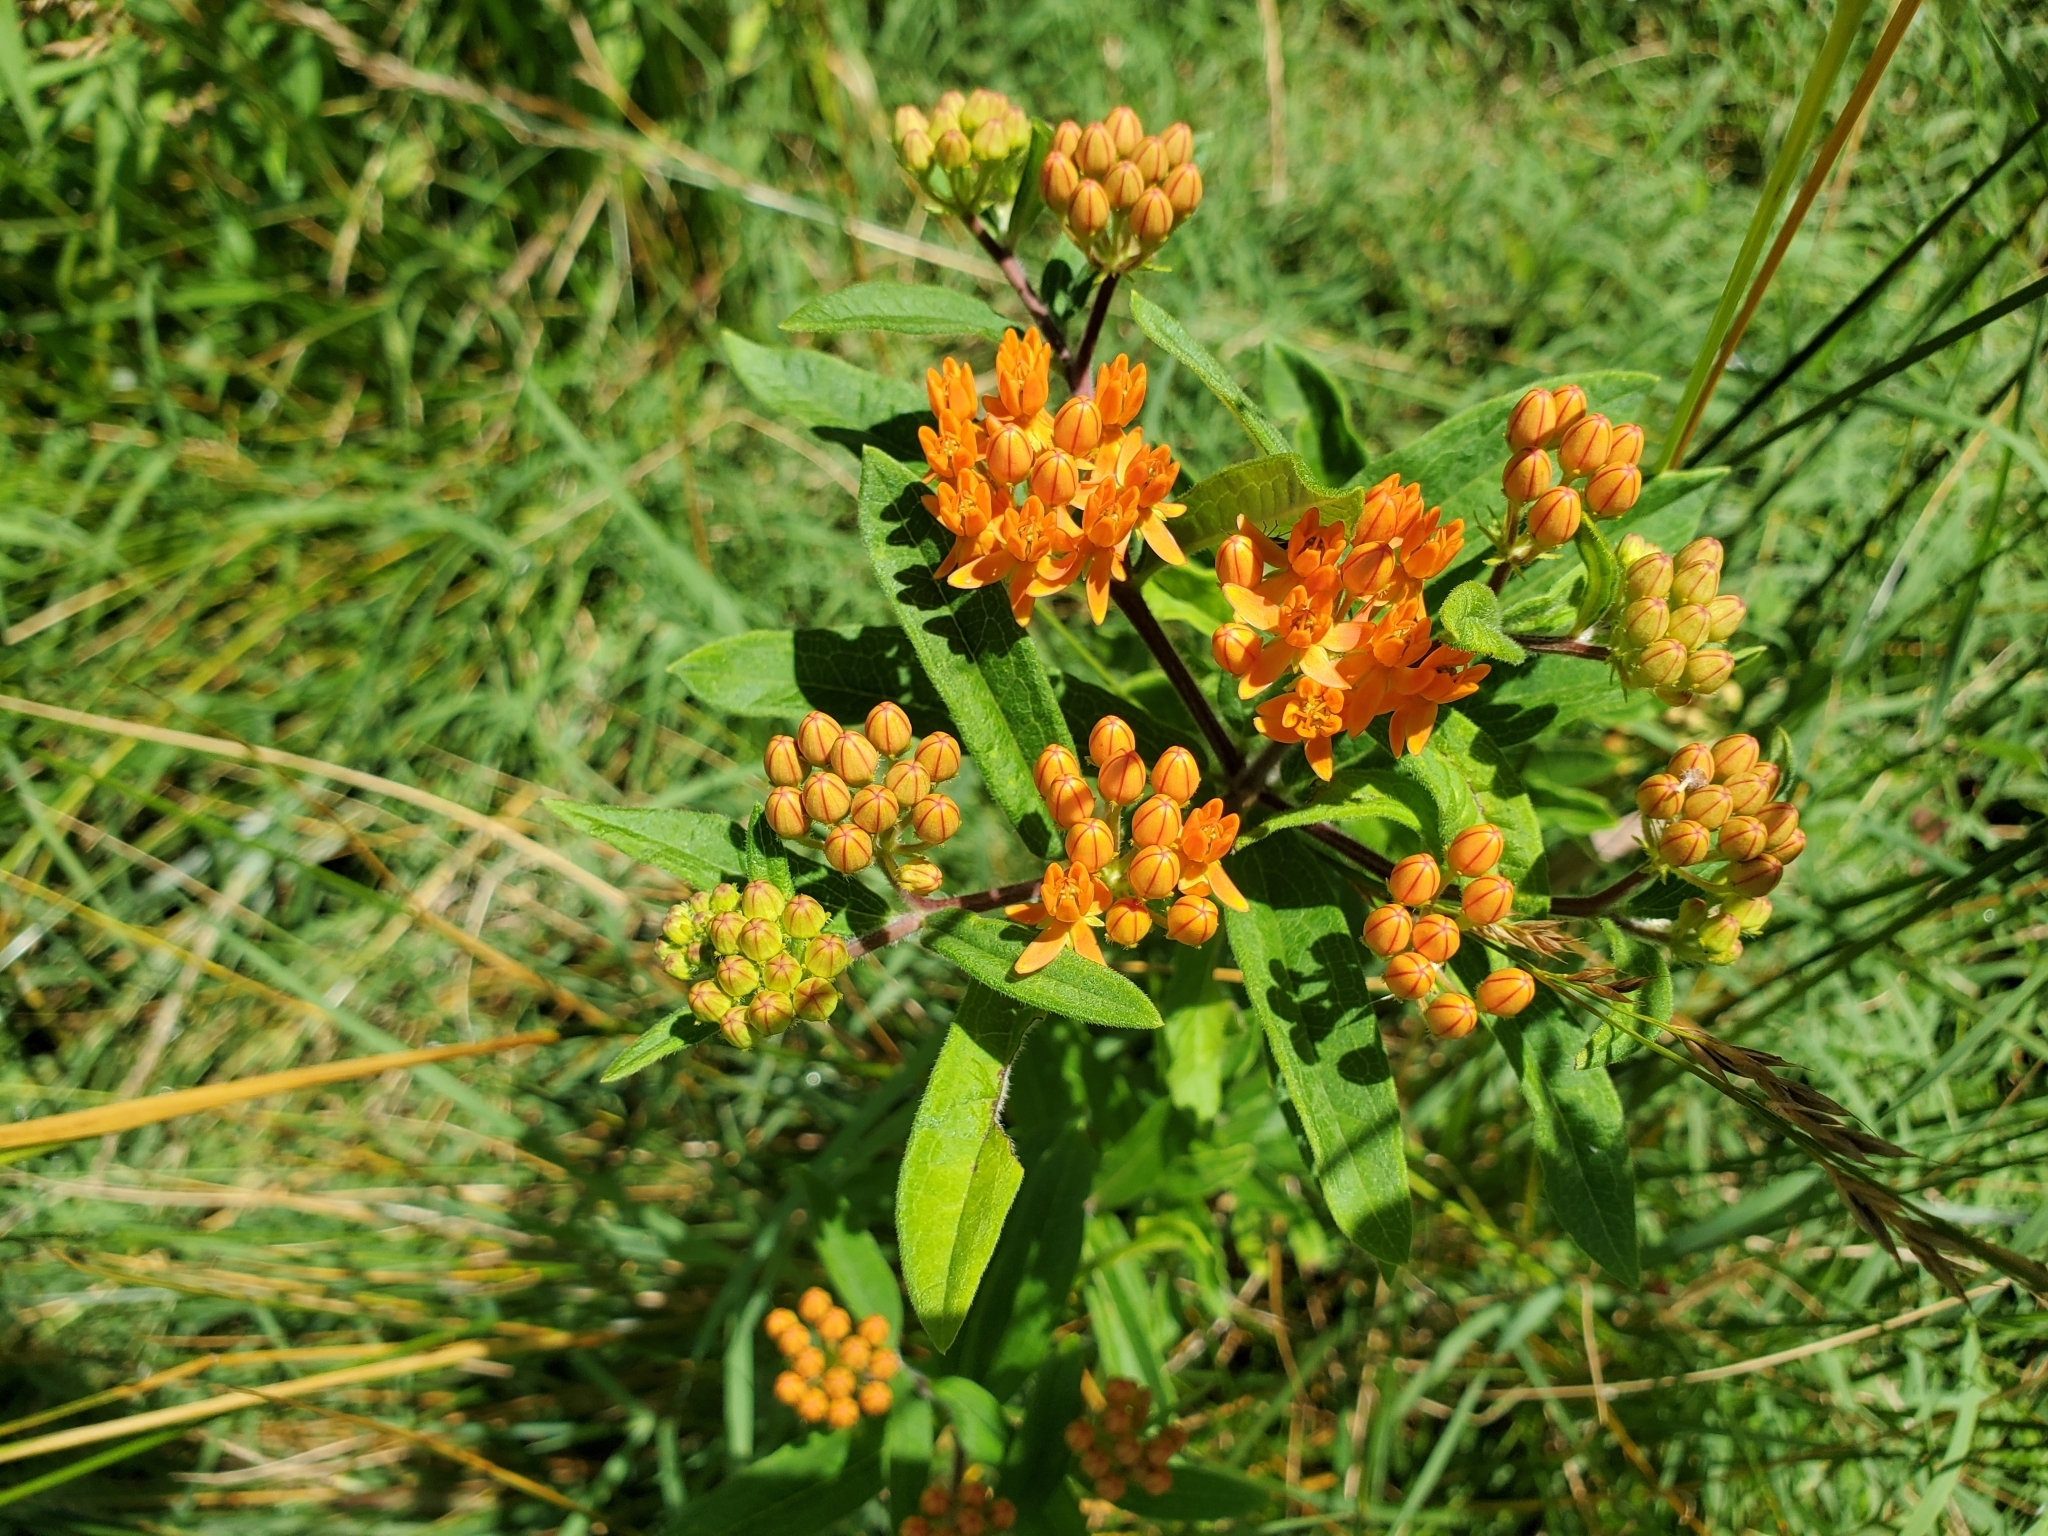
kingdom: Plantae
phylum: Tracheophyta
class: Magnoliopsida
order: Gentianales
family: Apocynaceae
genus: Asclepias
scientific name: Asclepias tuberosa
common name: Butterfly milkweed
